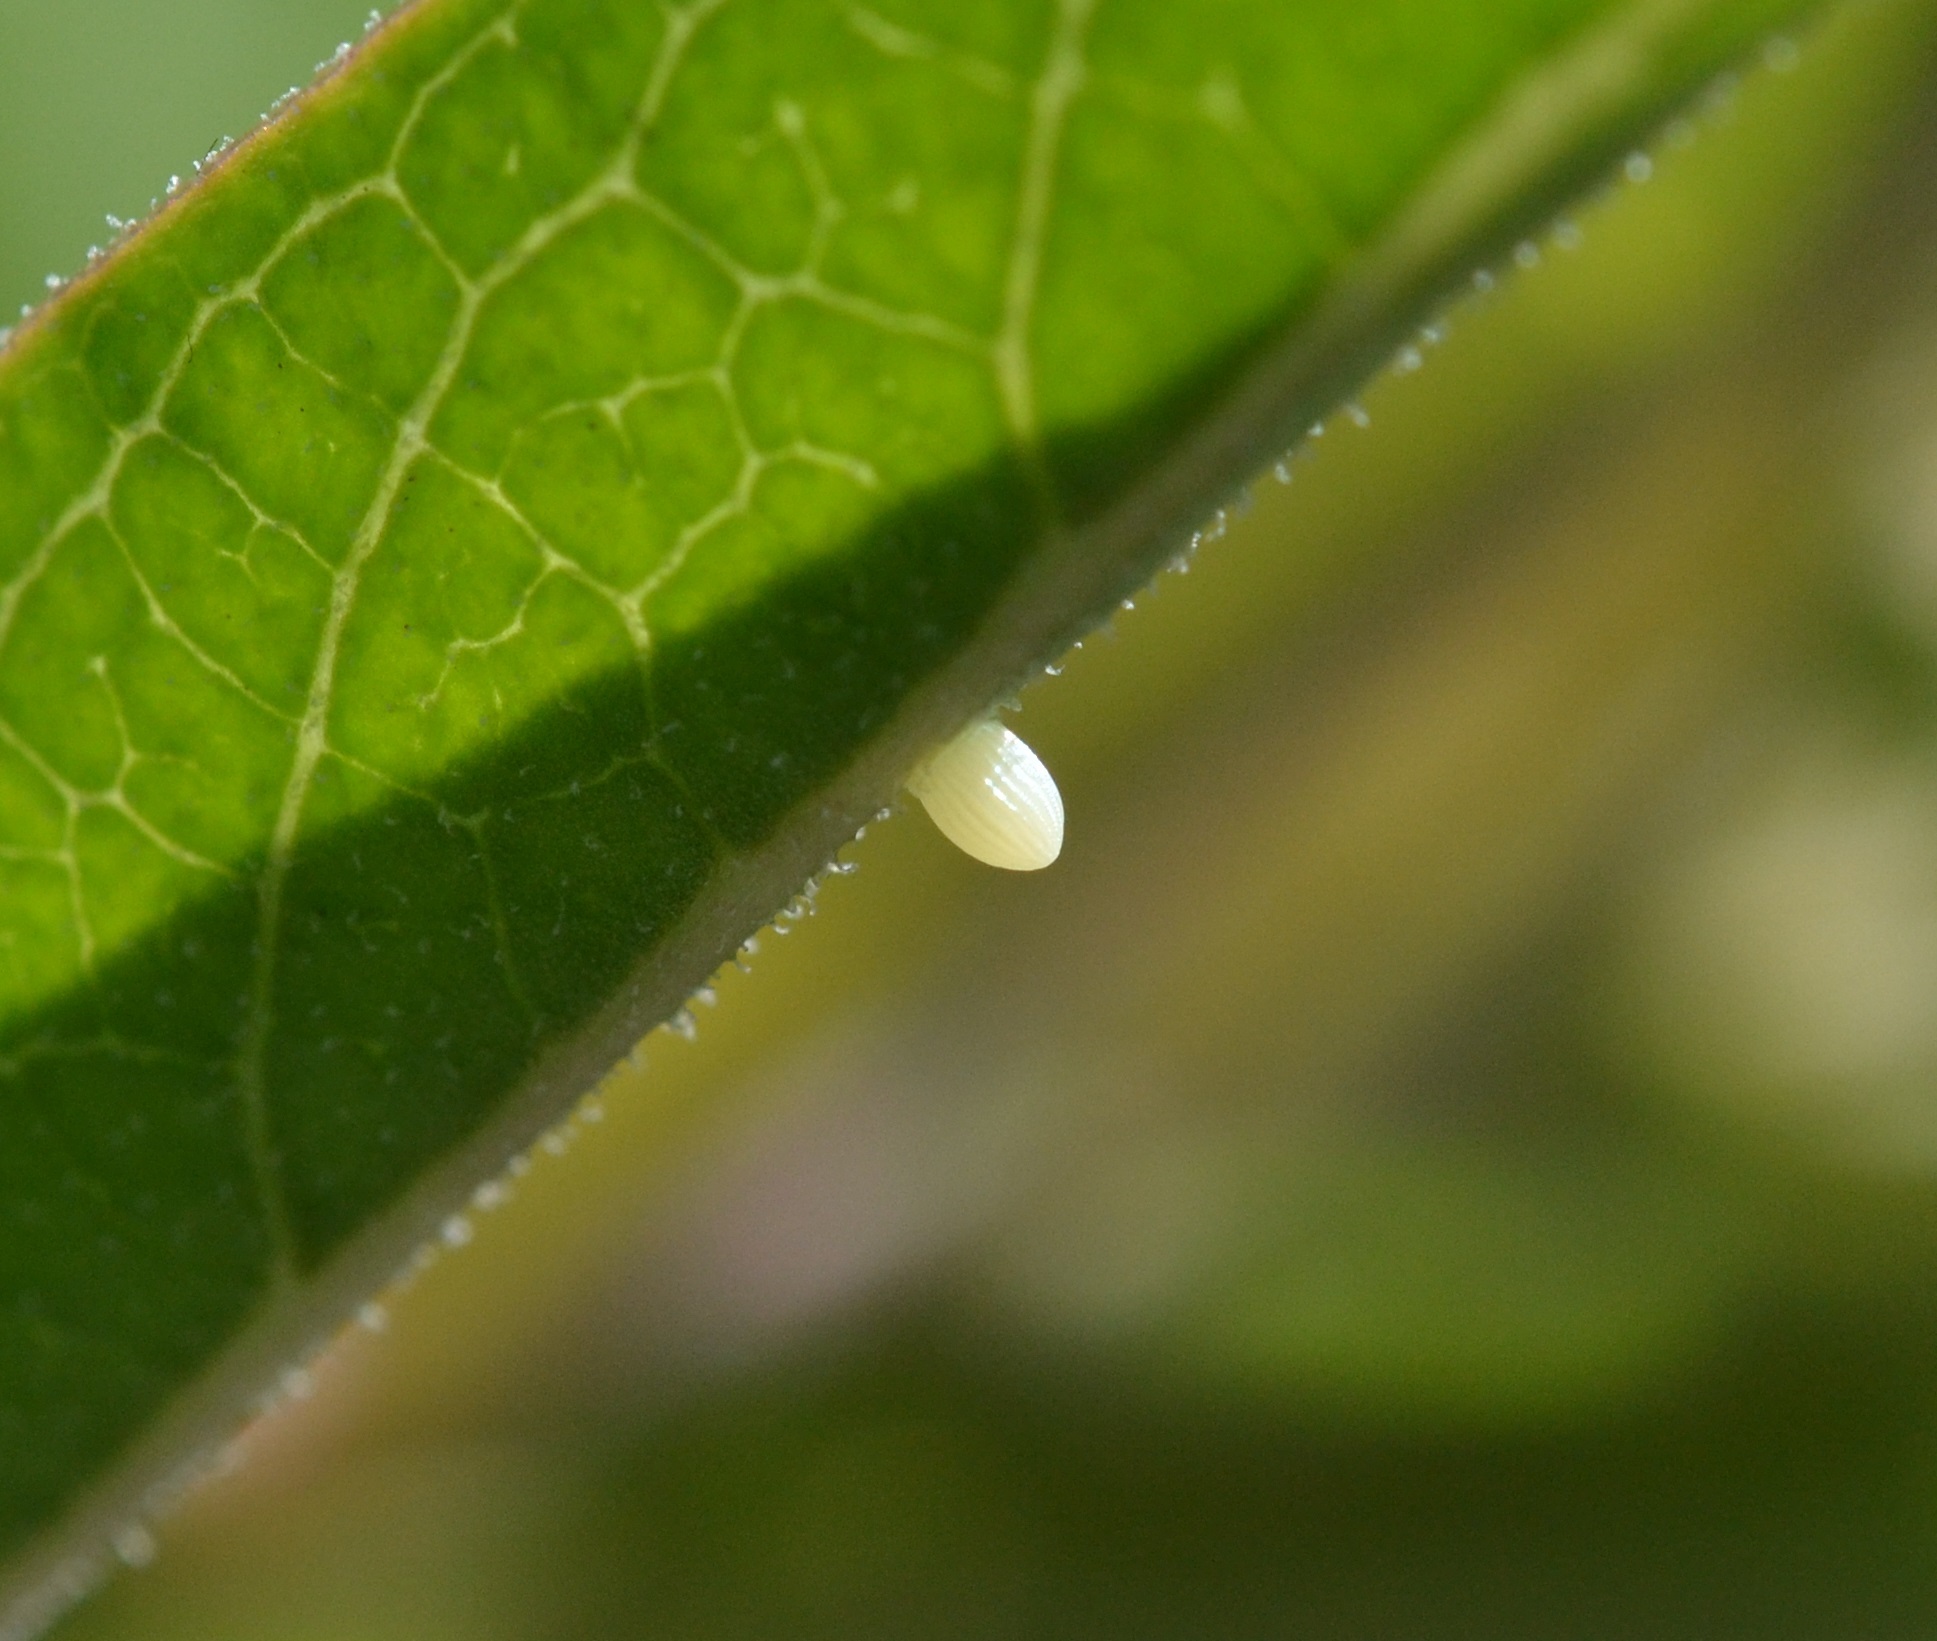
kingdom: Animalia
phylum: Arthropoda
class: Insecta
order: Lepidoptera
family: Nymphalidae
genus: Danaus
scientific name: Danaus plexippus
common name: Monarch
